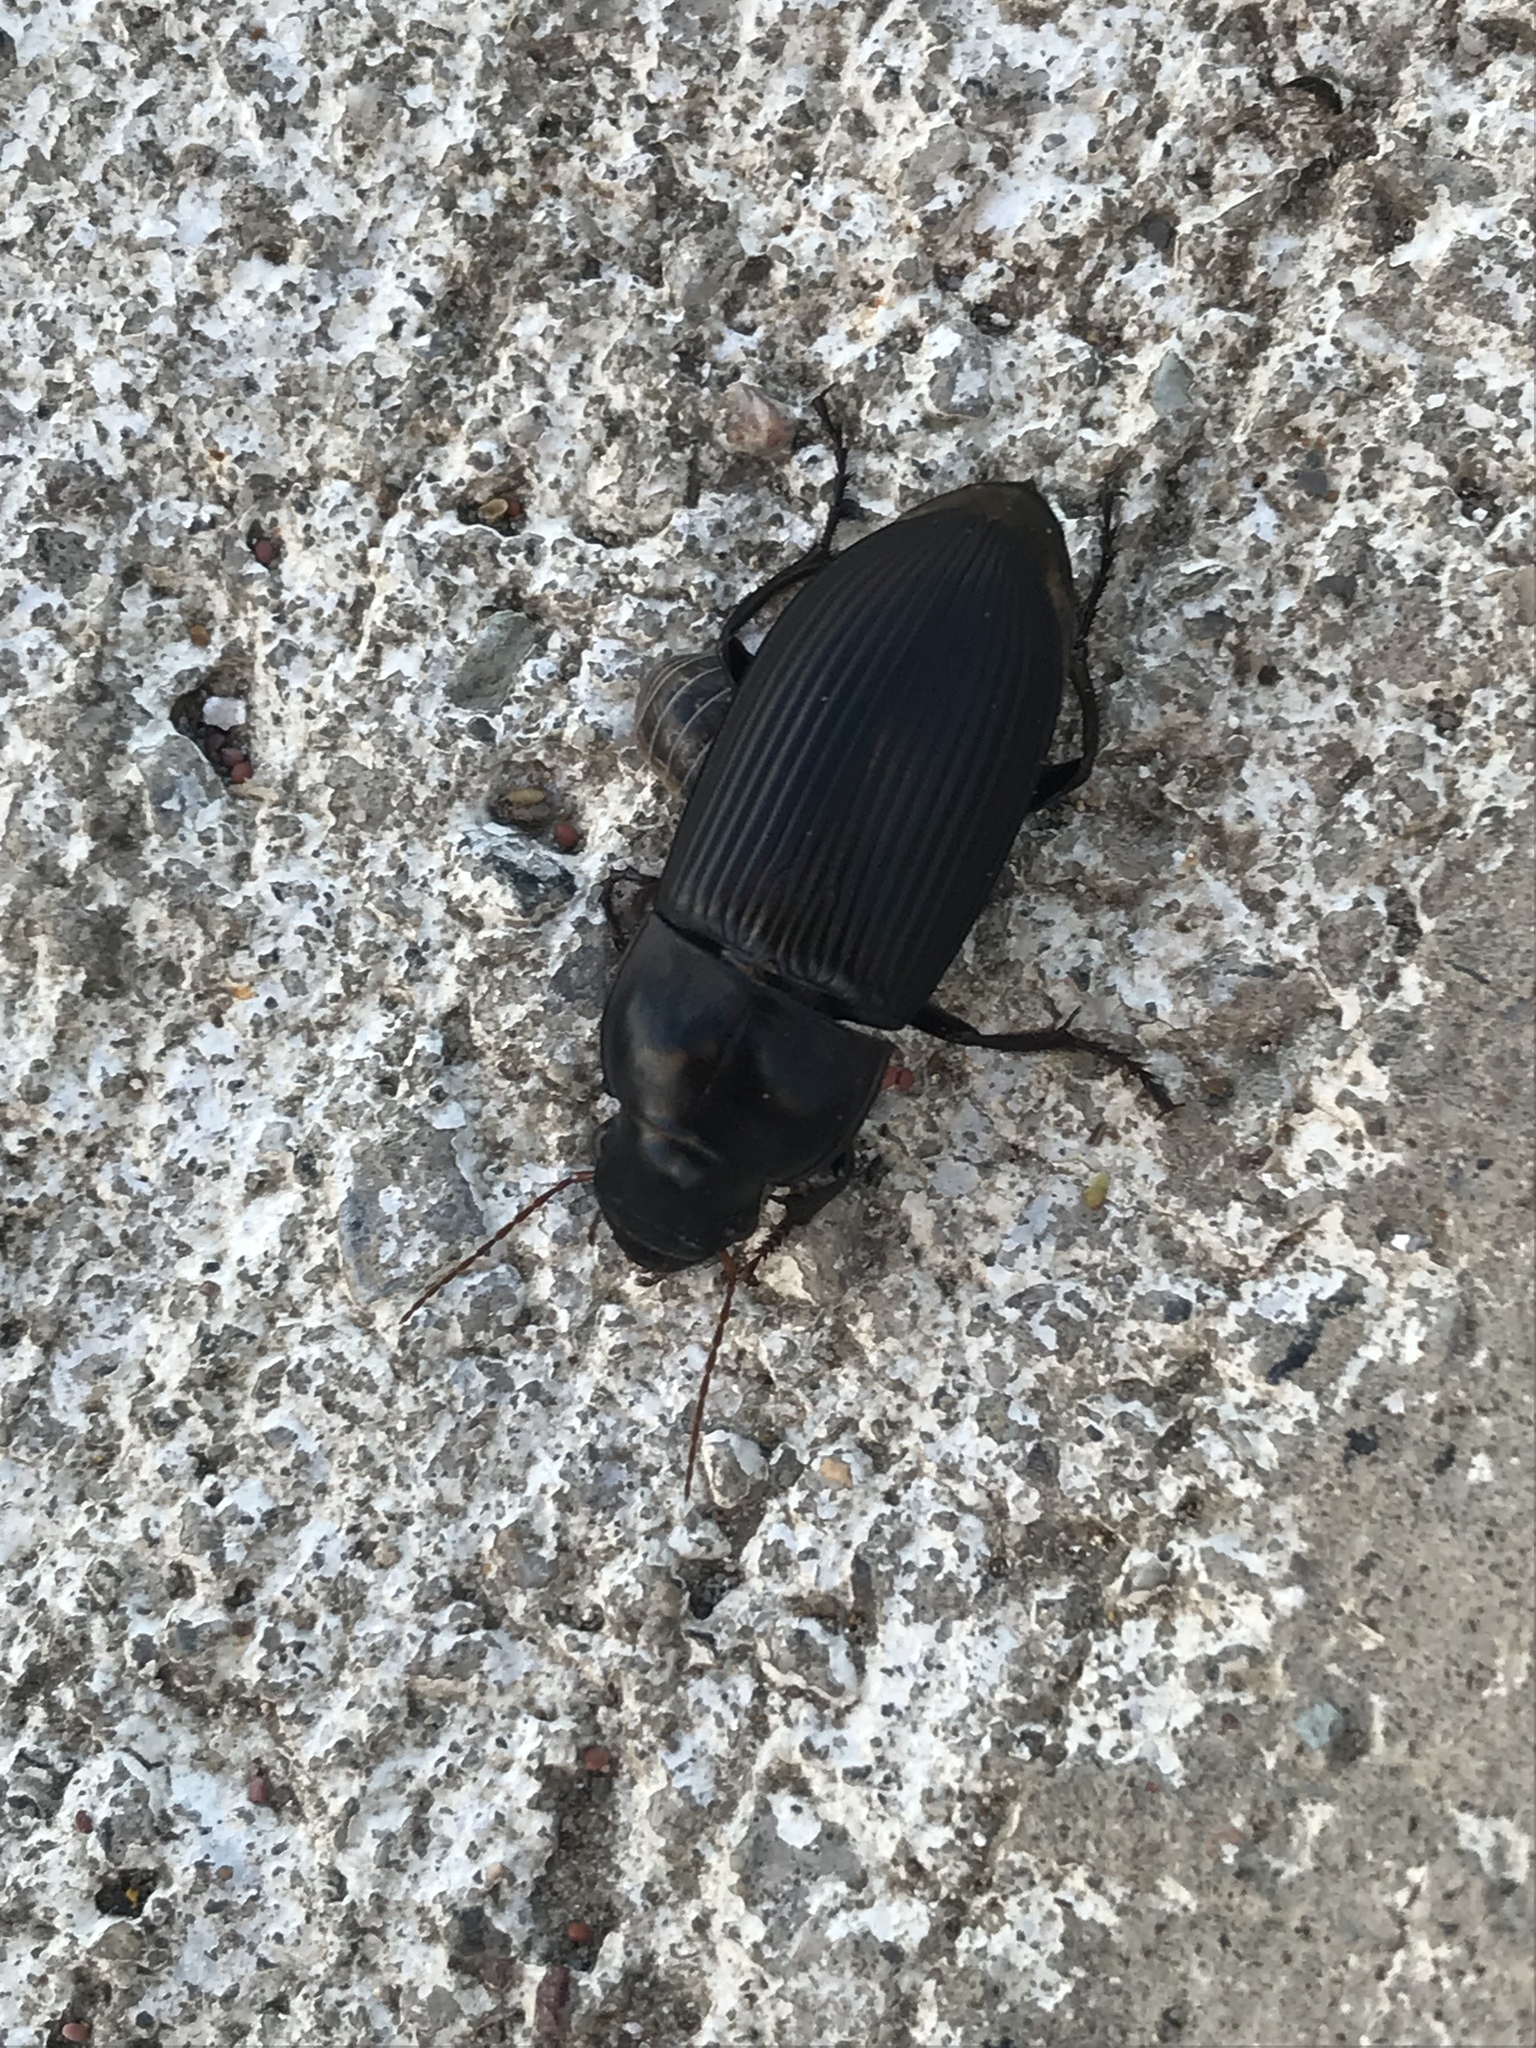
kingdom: Animalia
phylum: Arthropoda
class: Insecta
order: Coleoptera
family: Carabidae
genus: Harpalus
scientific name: Harpalus caliginosus
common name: Murky ground beetle
